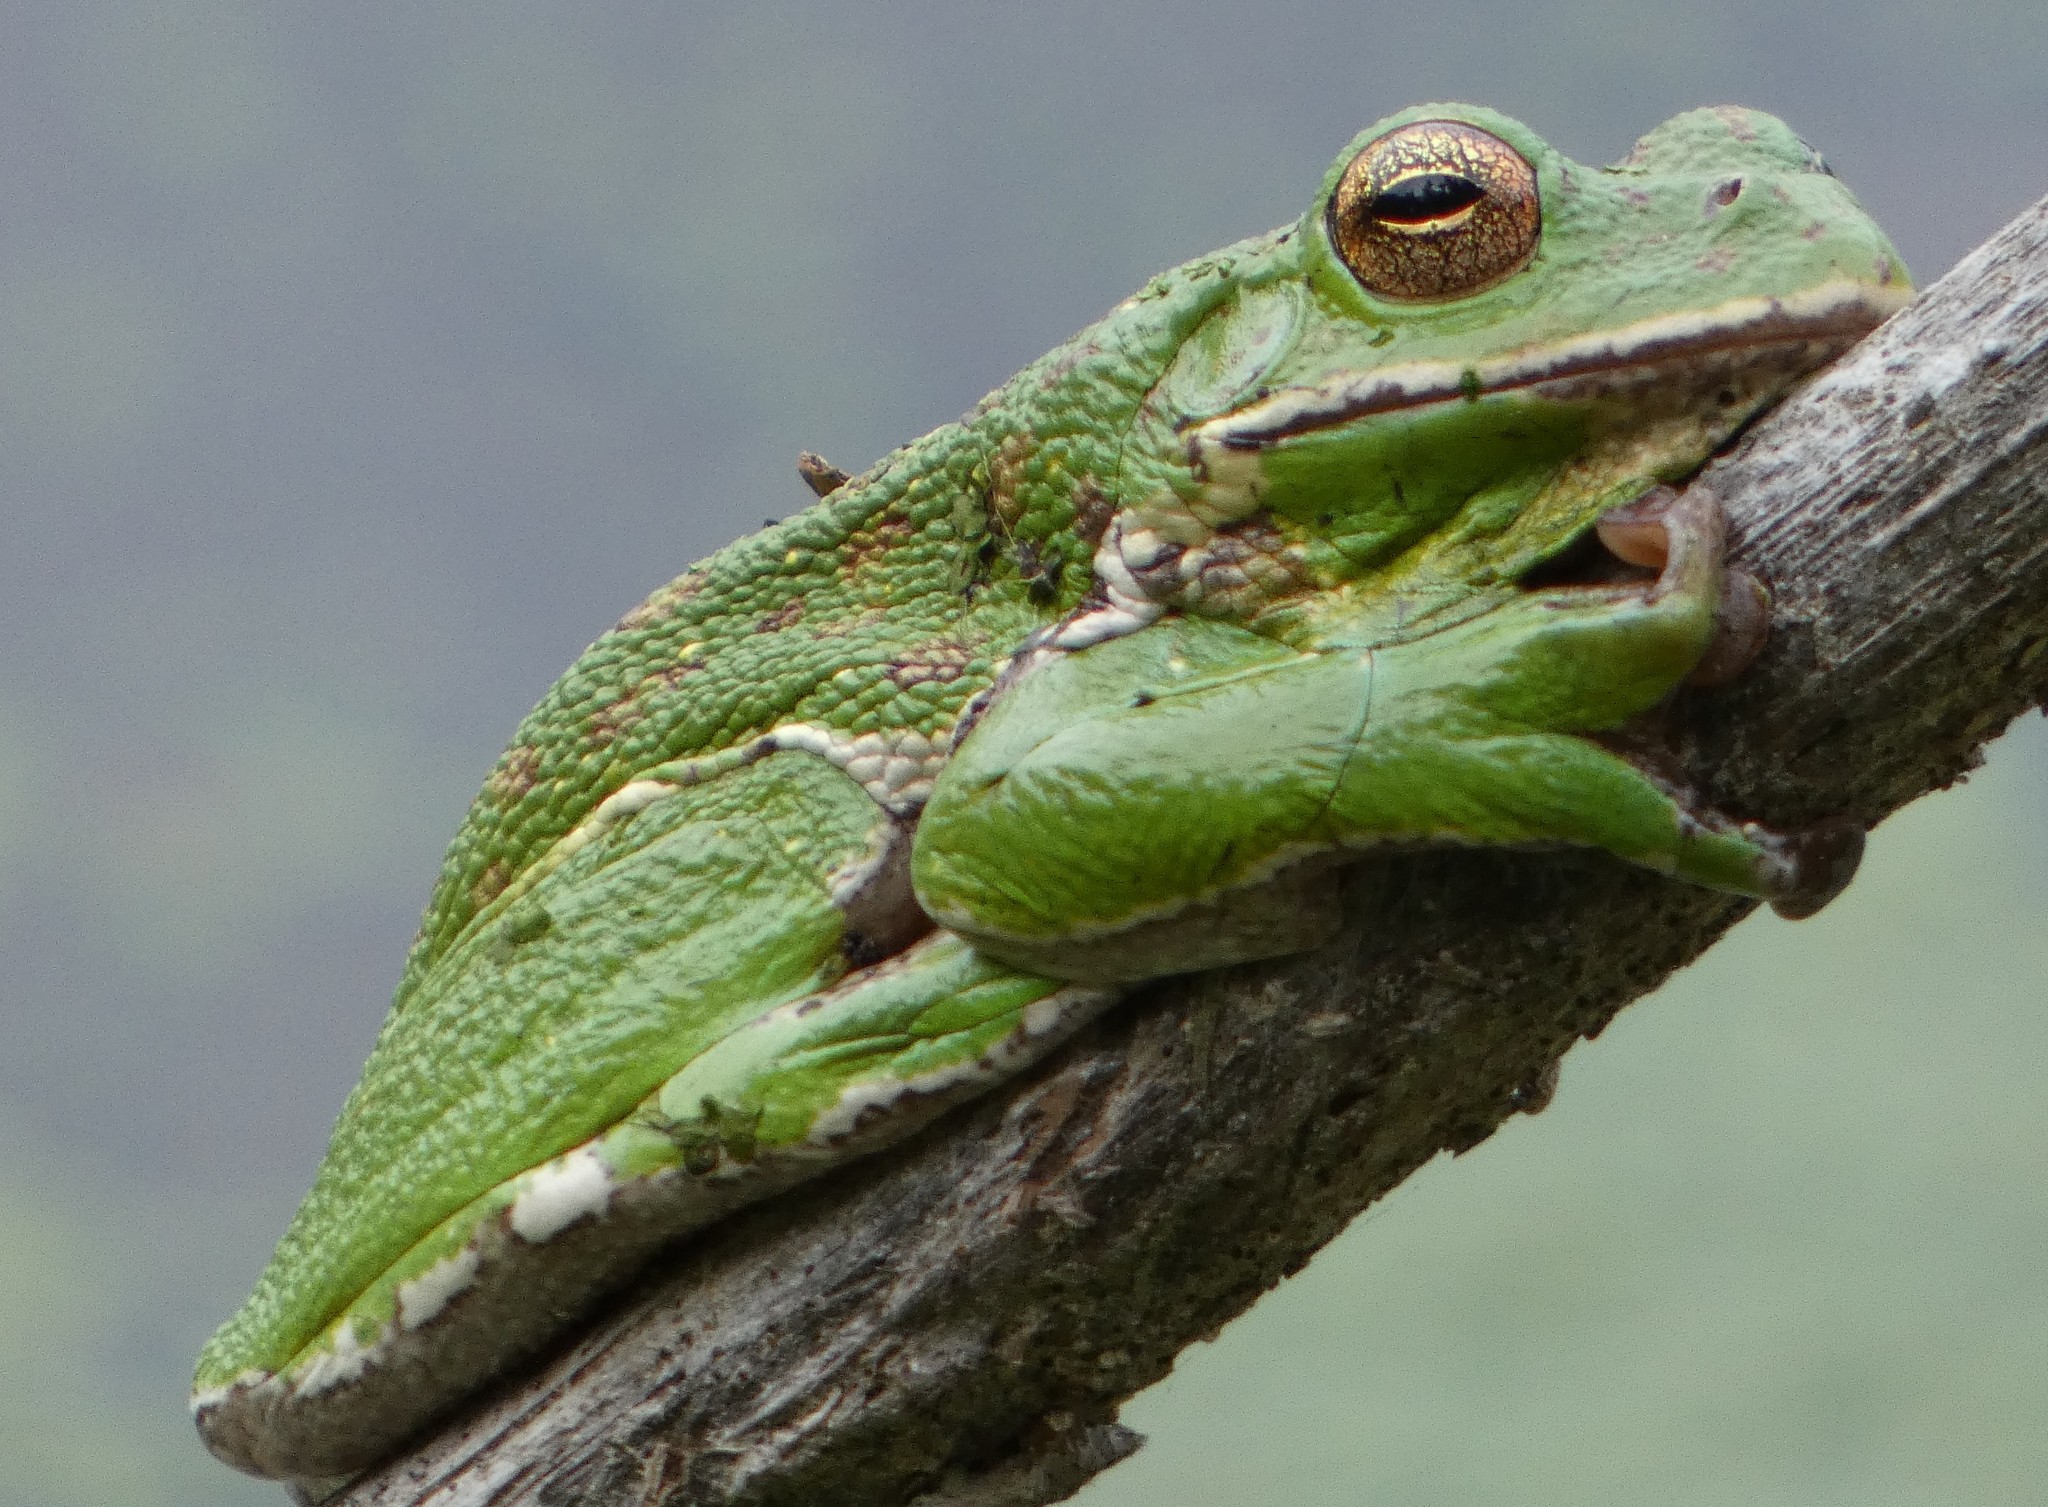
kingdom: Animalia
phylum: Chordata
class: Amphibia
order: Anura
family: Hylidae
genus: Dryophytes
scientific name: Dryophytes gratiosus
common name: Barking treefrog
